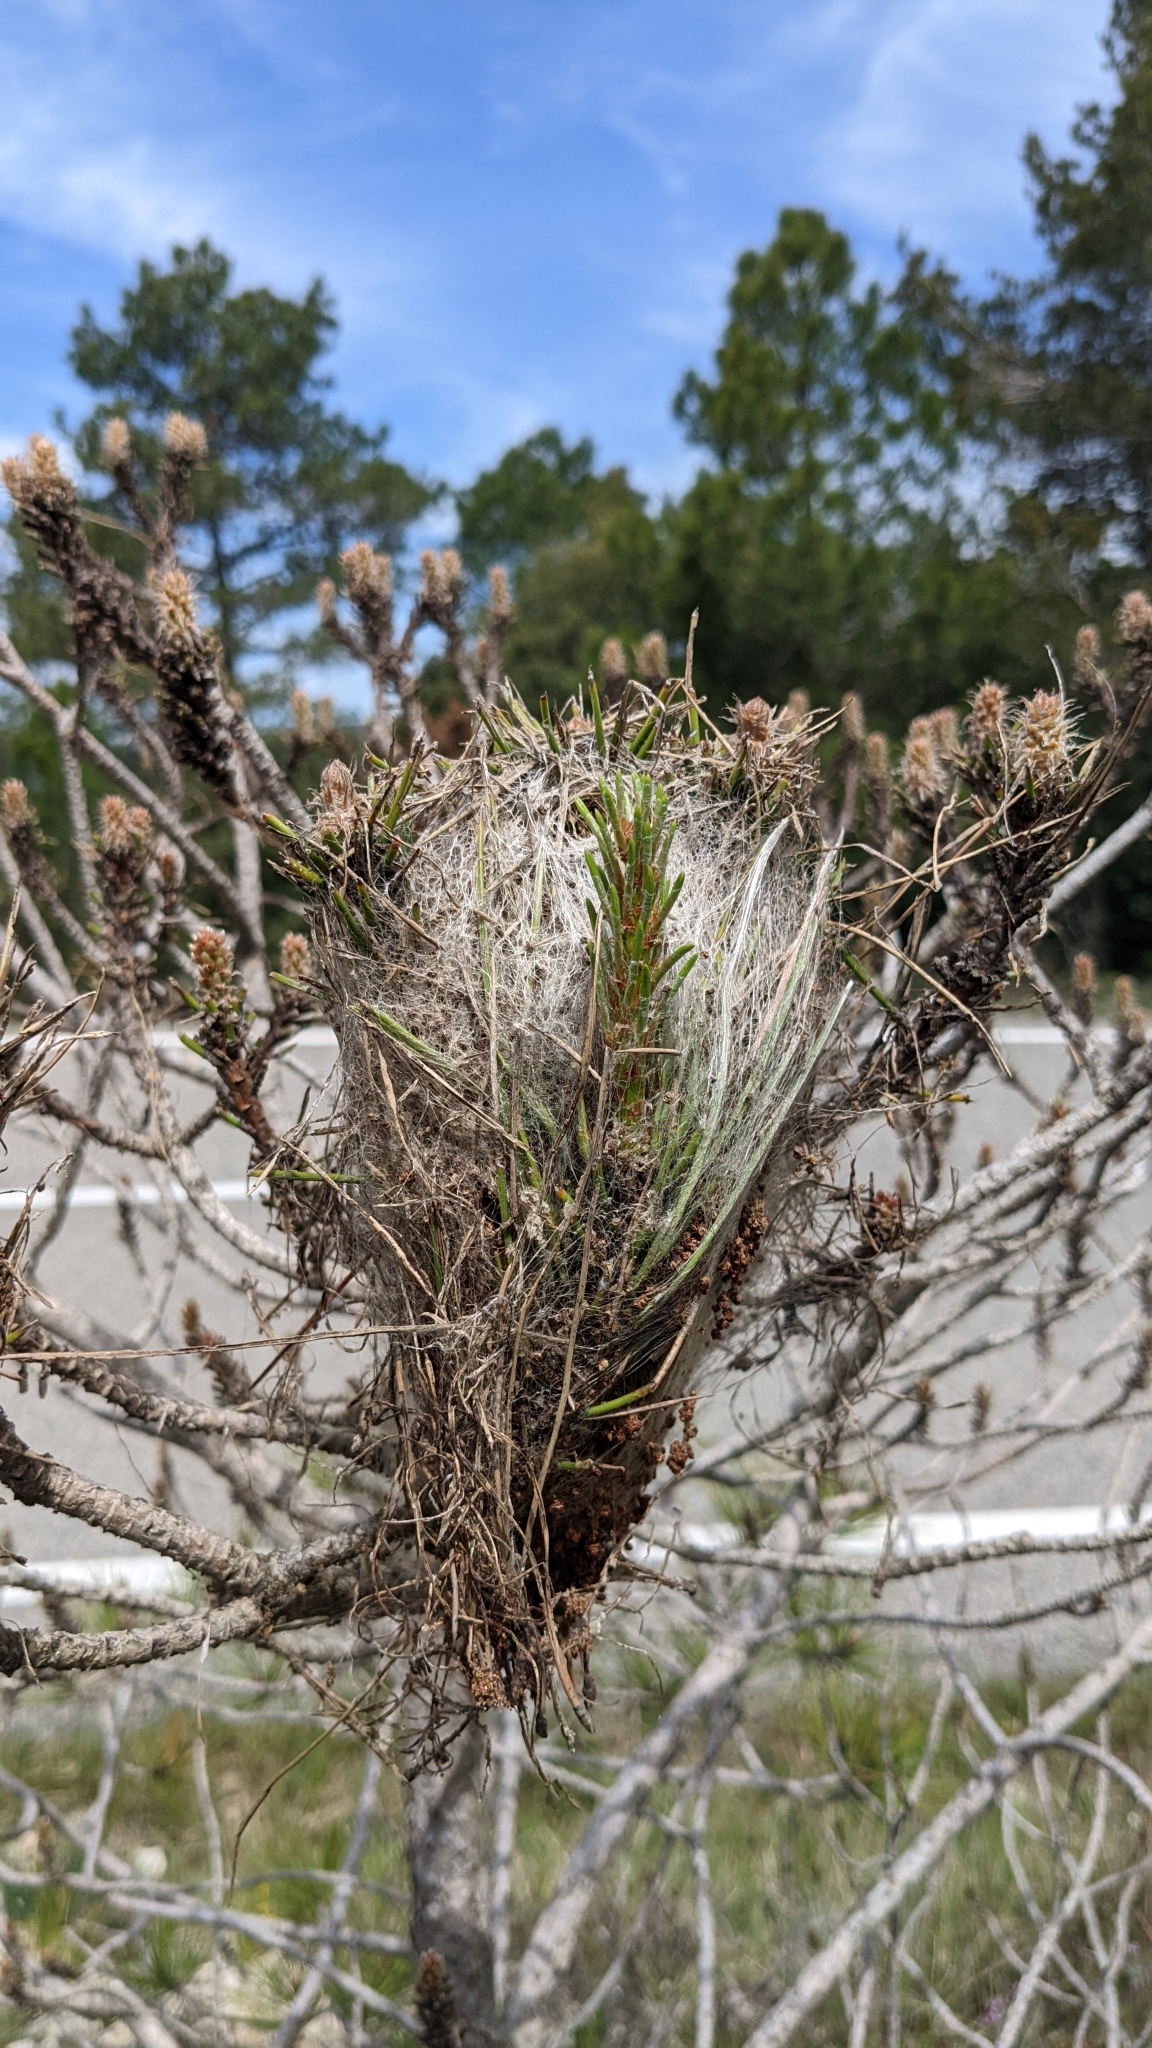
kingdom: Animalia
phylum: Arthropoda
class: Insecta
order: Lepidoptera
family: Notodontidae
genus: Thaumetopoea
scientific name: Thaumetopoea pityocampa
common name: Pine processionary
